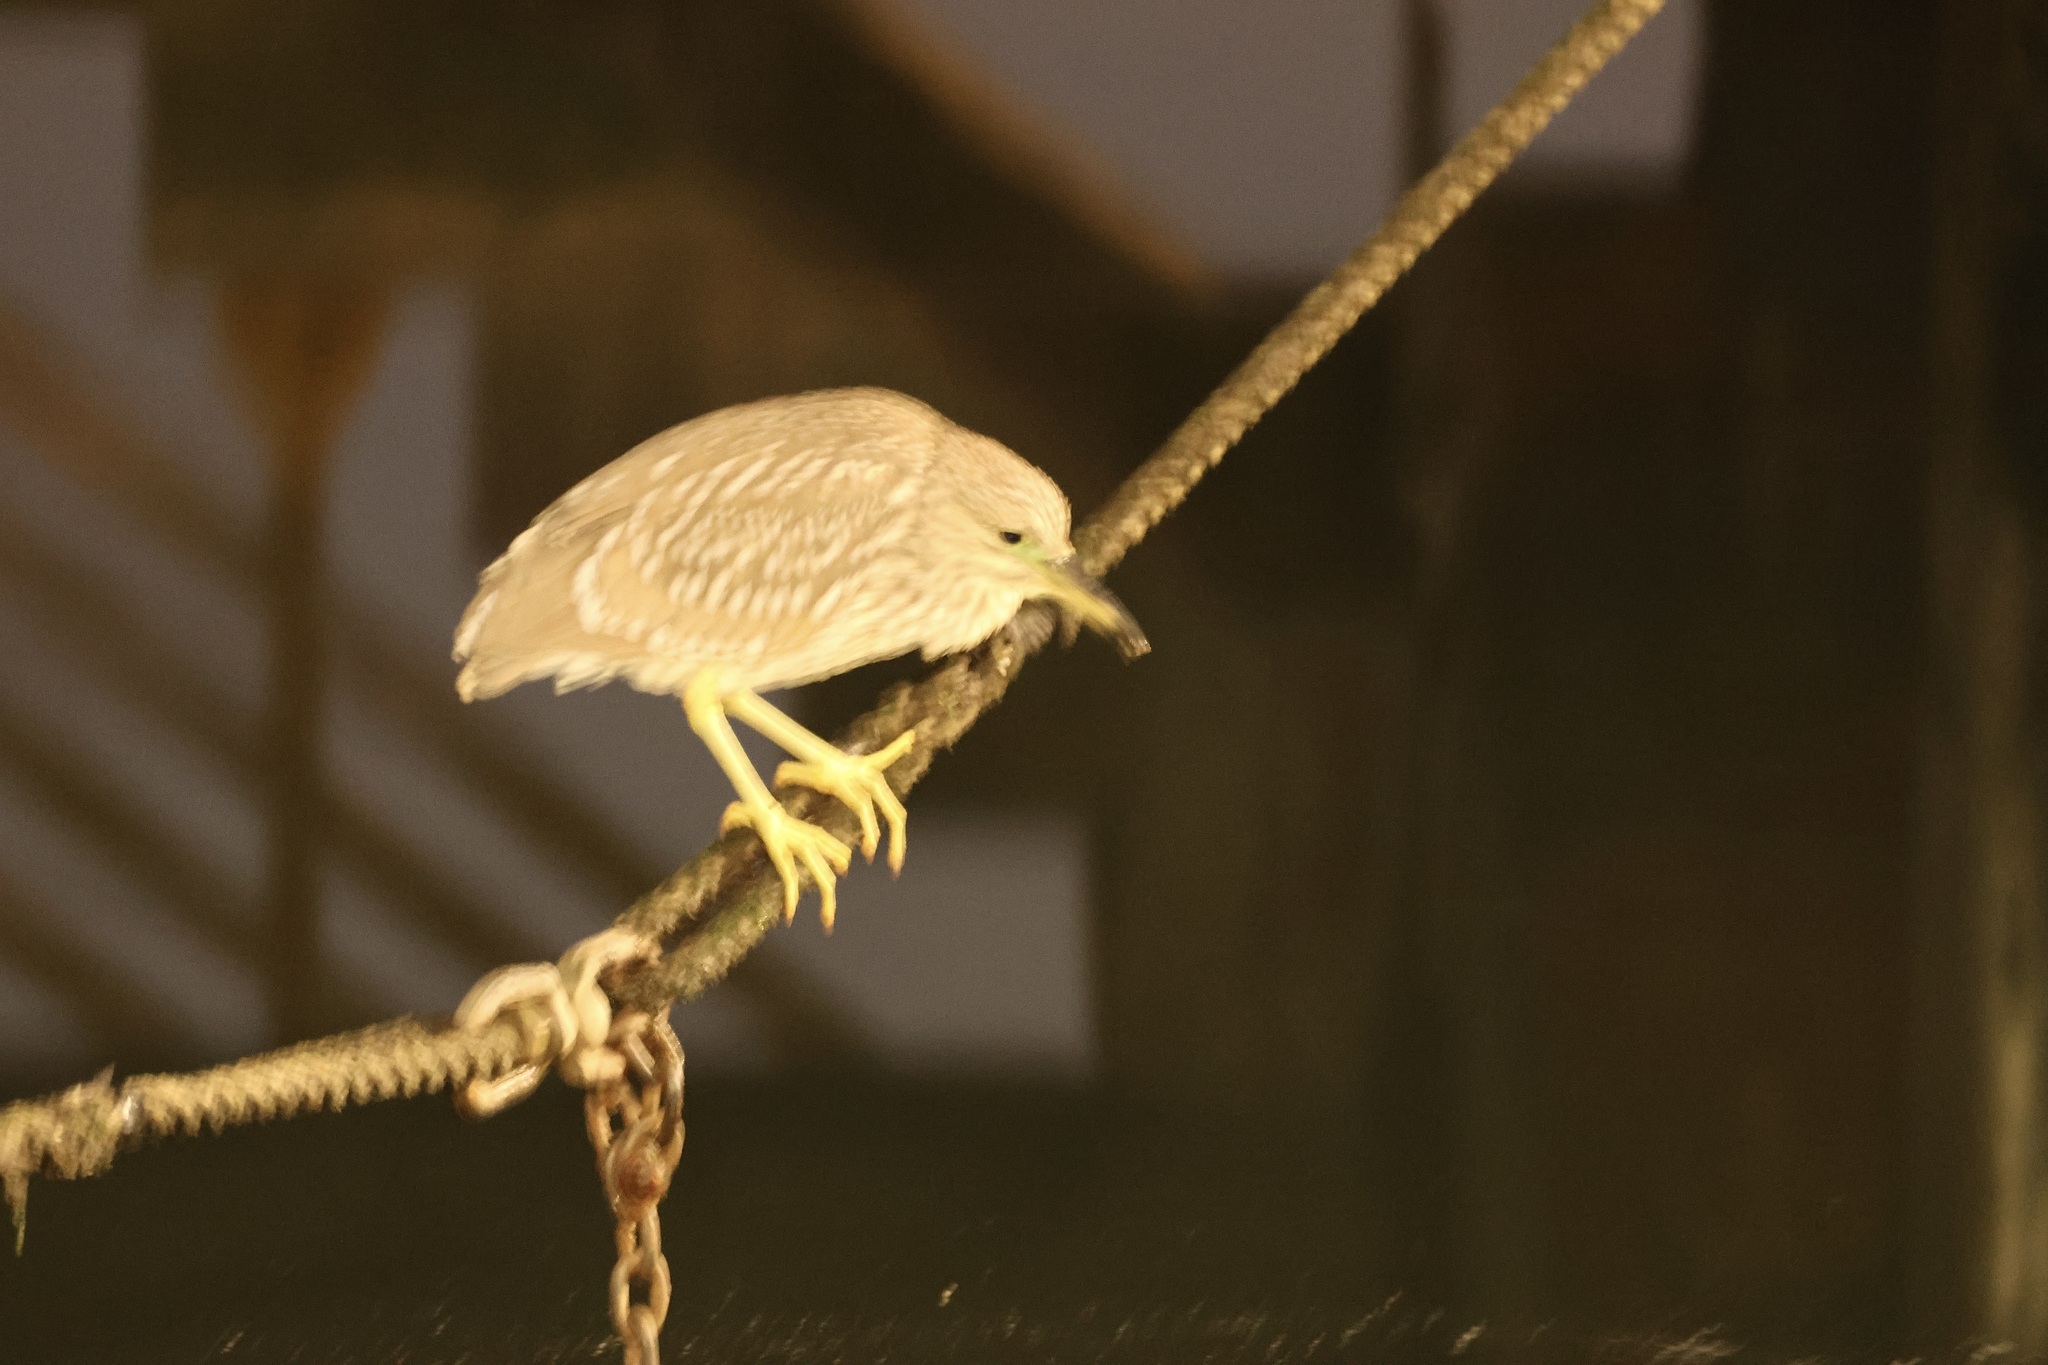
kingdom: Animalia
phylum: Chordata
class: Aves
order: Pelecaniformes
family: Ardeidae
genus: Nycticorax
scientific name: Nycticorax nycticorax
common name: Black-crowned night heron
